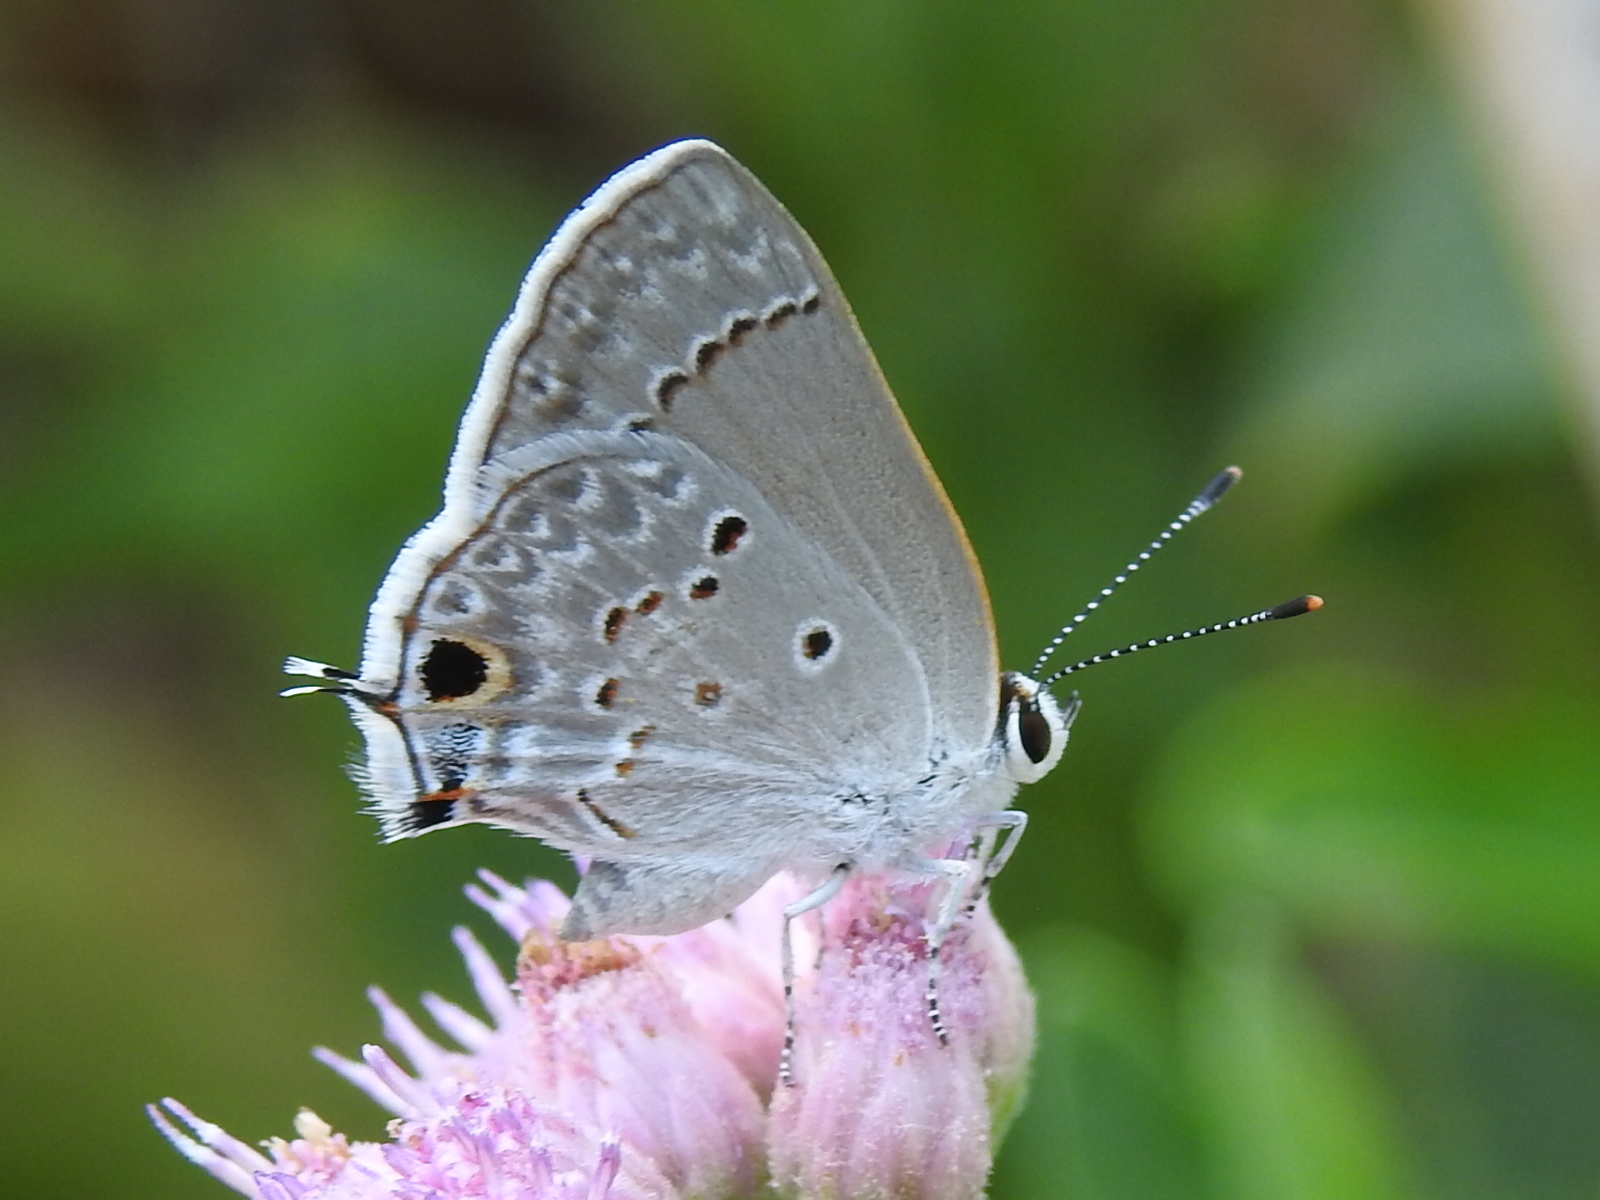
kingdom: Animalia
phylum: Arthropoda
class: Insecta
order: Lepidoptera
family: Lycaenidae
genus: Callicista
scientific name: Callicista columella
